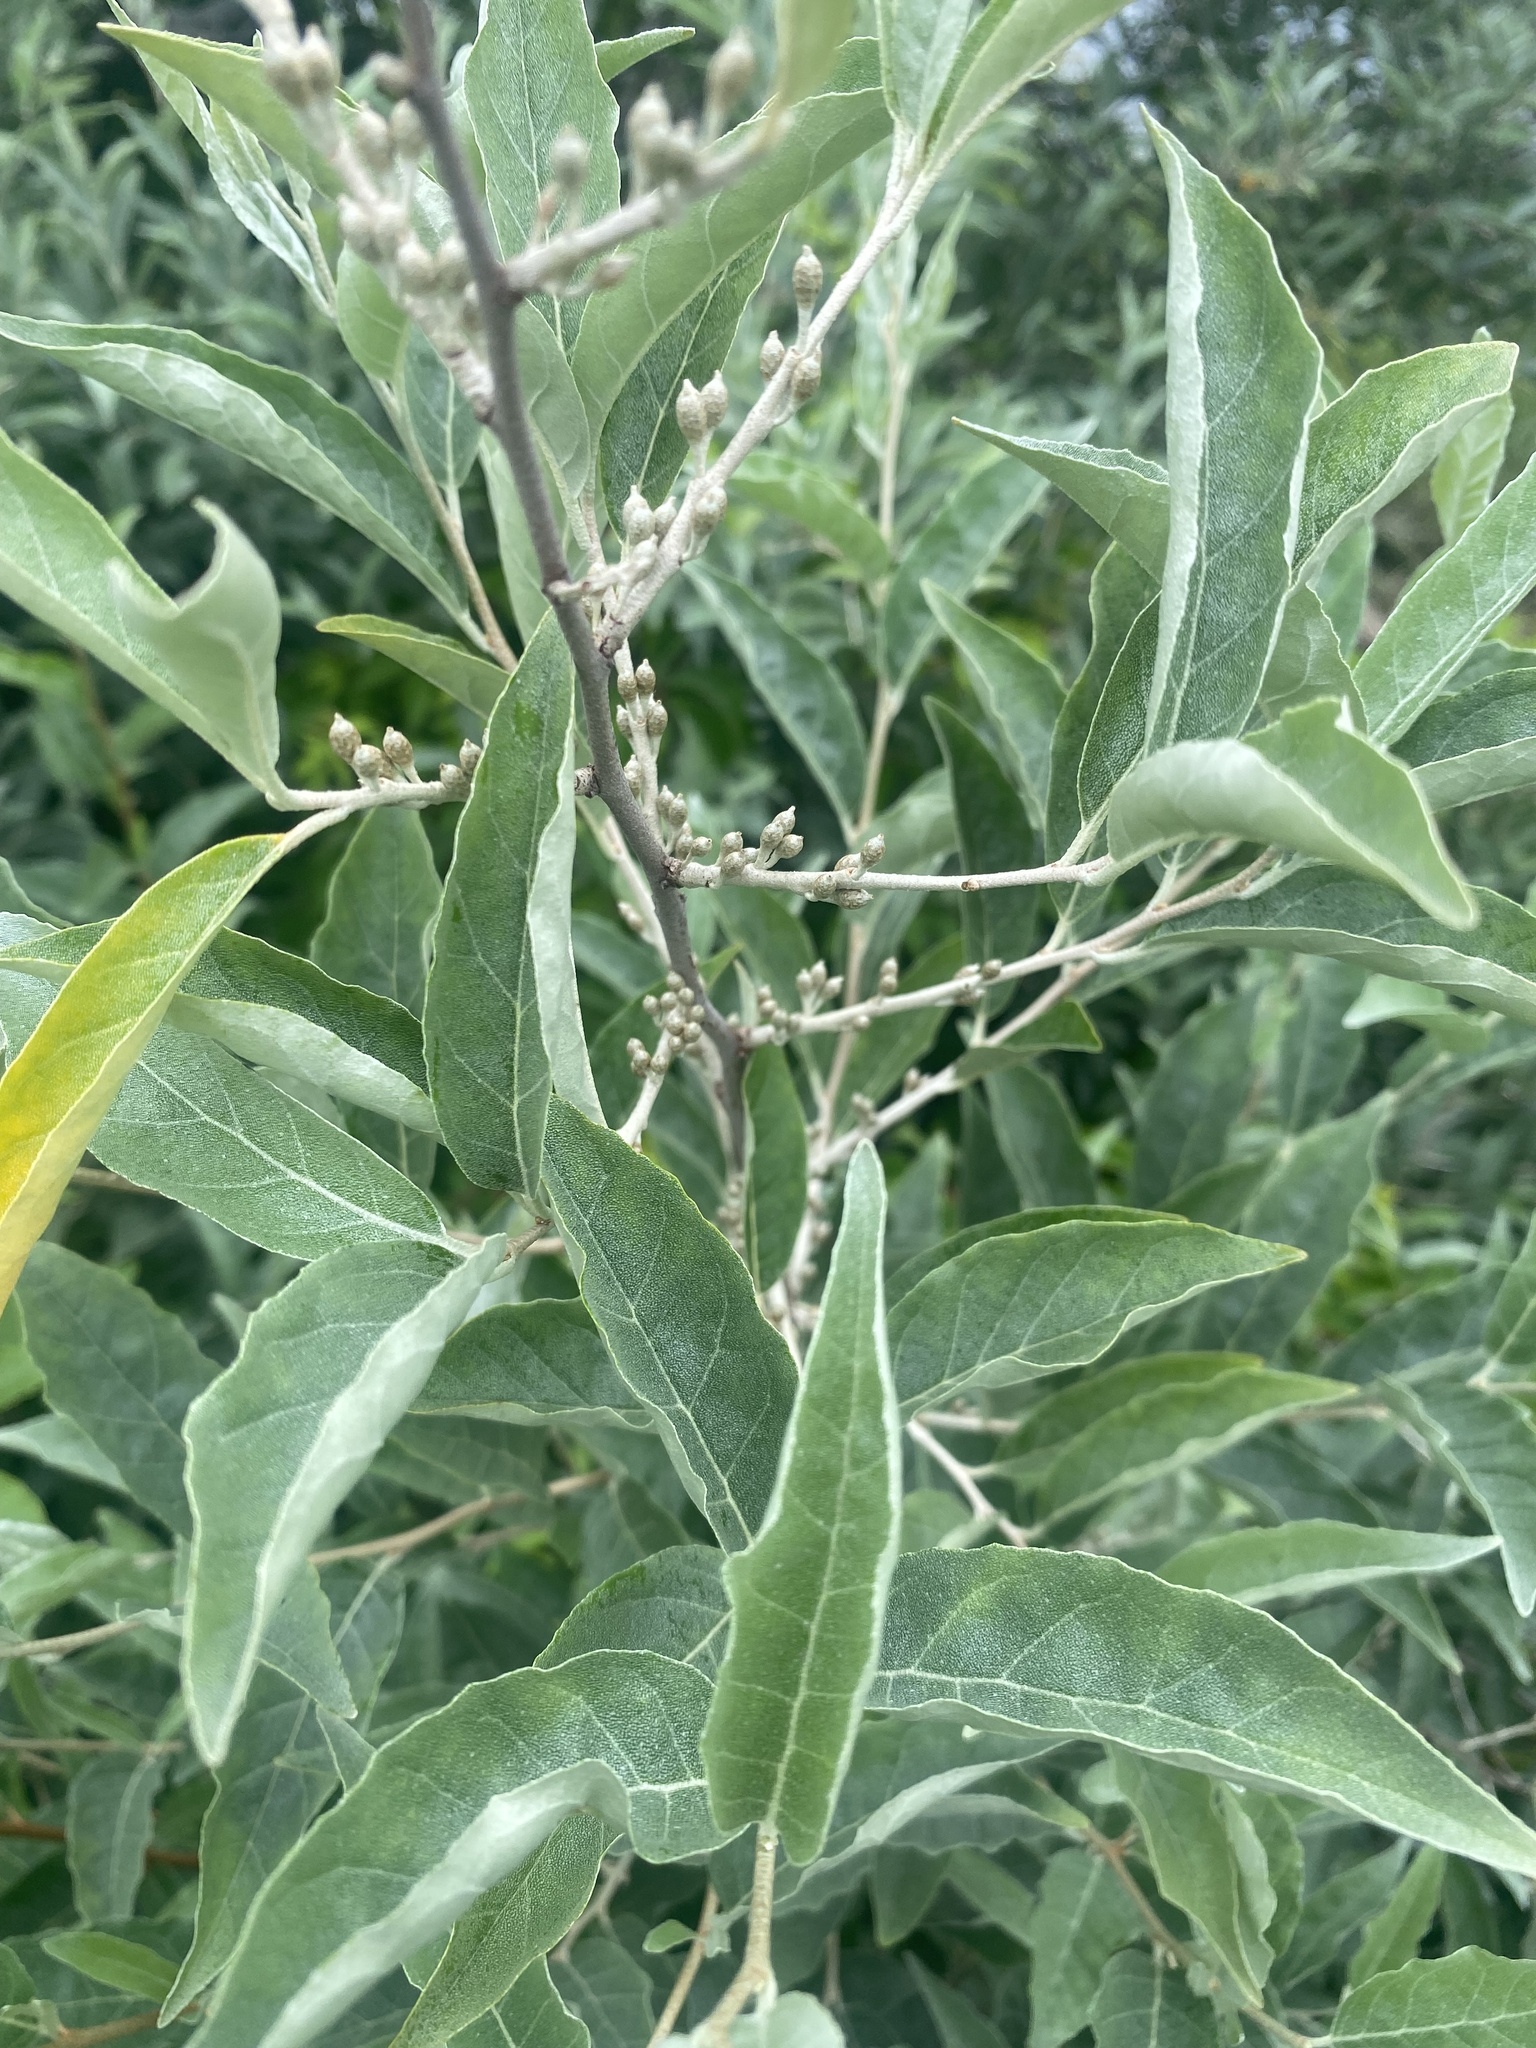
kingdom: Plantae
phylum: Tracheophyta
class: Magnoliopsida
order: Rosales
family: Elaeagnaceae
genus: Elaeagnus
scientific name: Elaeagnus umbellata
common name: Autumn olive
